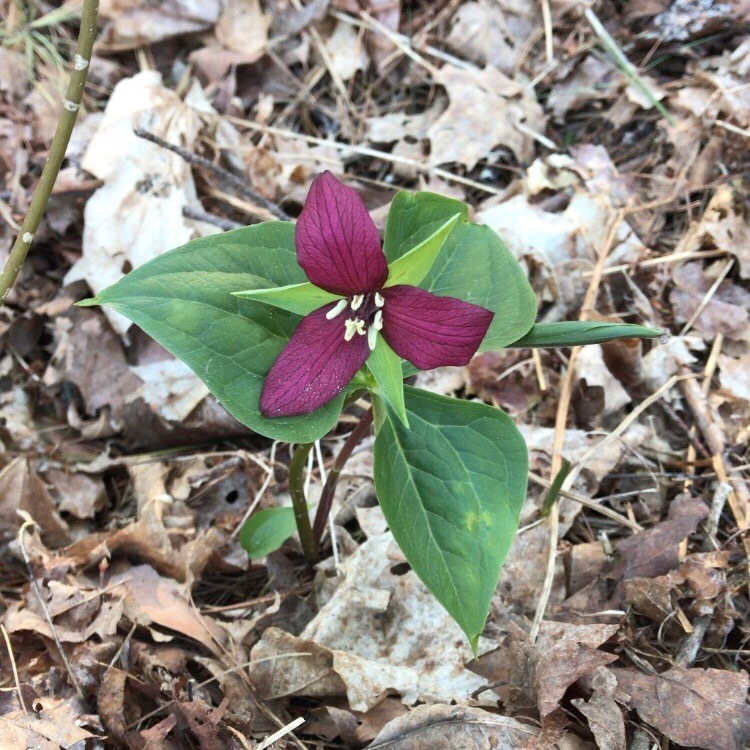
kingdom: Plantae
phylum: Tracheophyta
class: Liliopsida
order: Liliales
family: Melanthiaceae
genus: Trillium
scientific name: Trillium erectum
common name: Purple trillium
